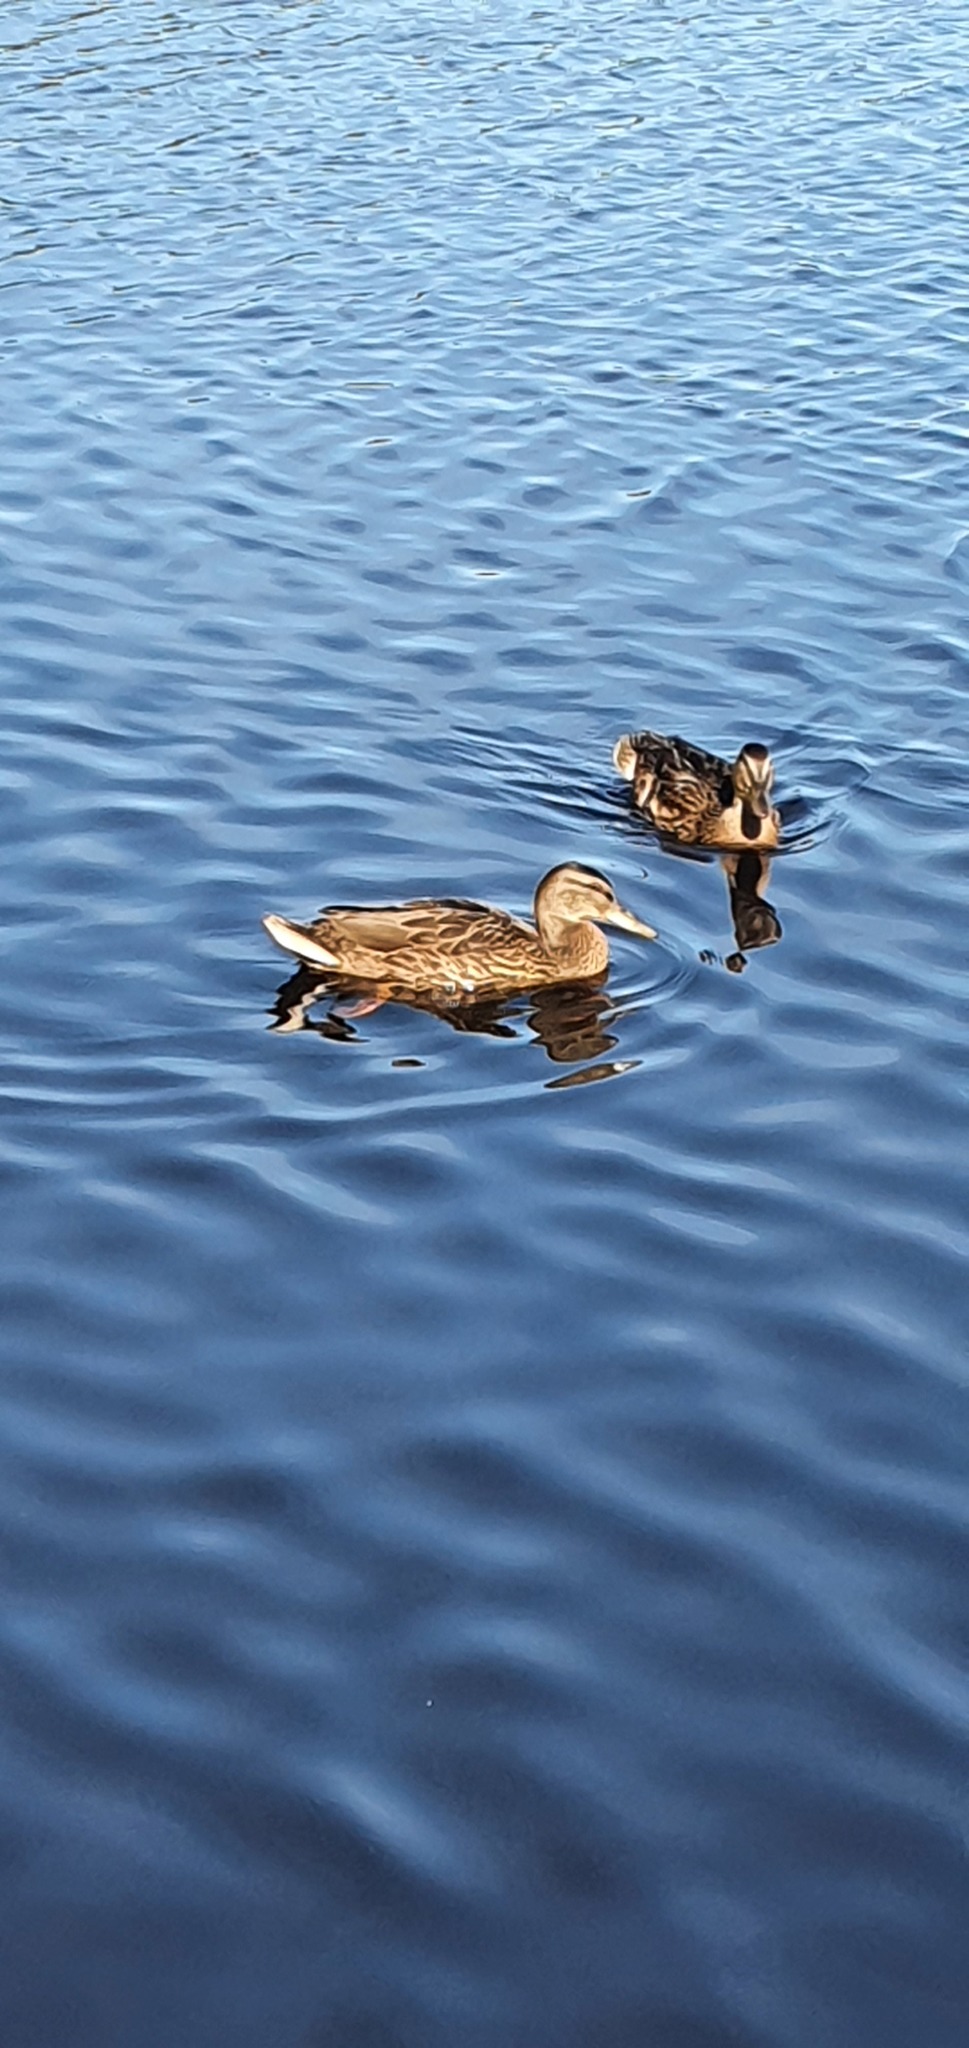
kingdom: Animalia
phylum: Chordata
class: Aves
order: Anseriformes
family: Anatidae
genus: Anas
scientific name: Anas platyrhynchos
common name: Mallard
